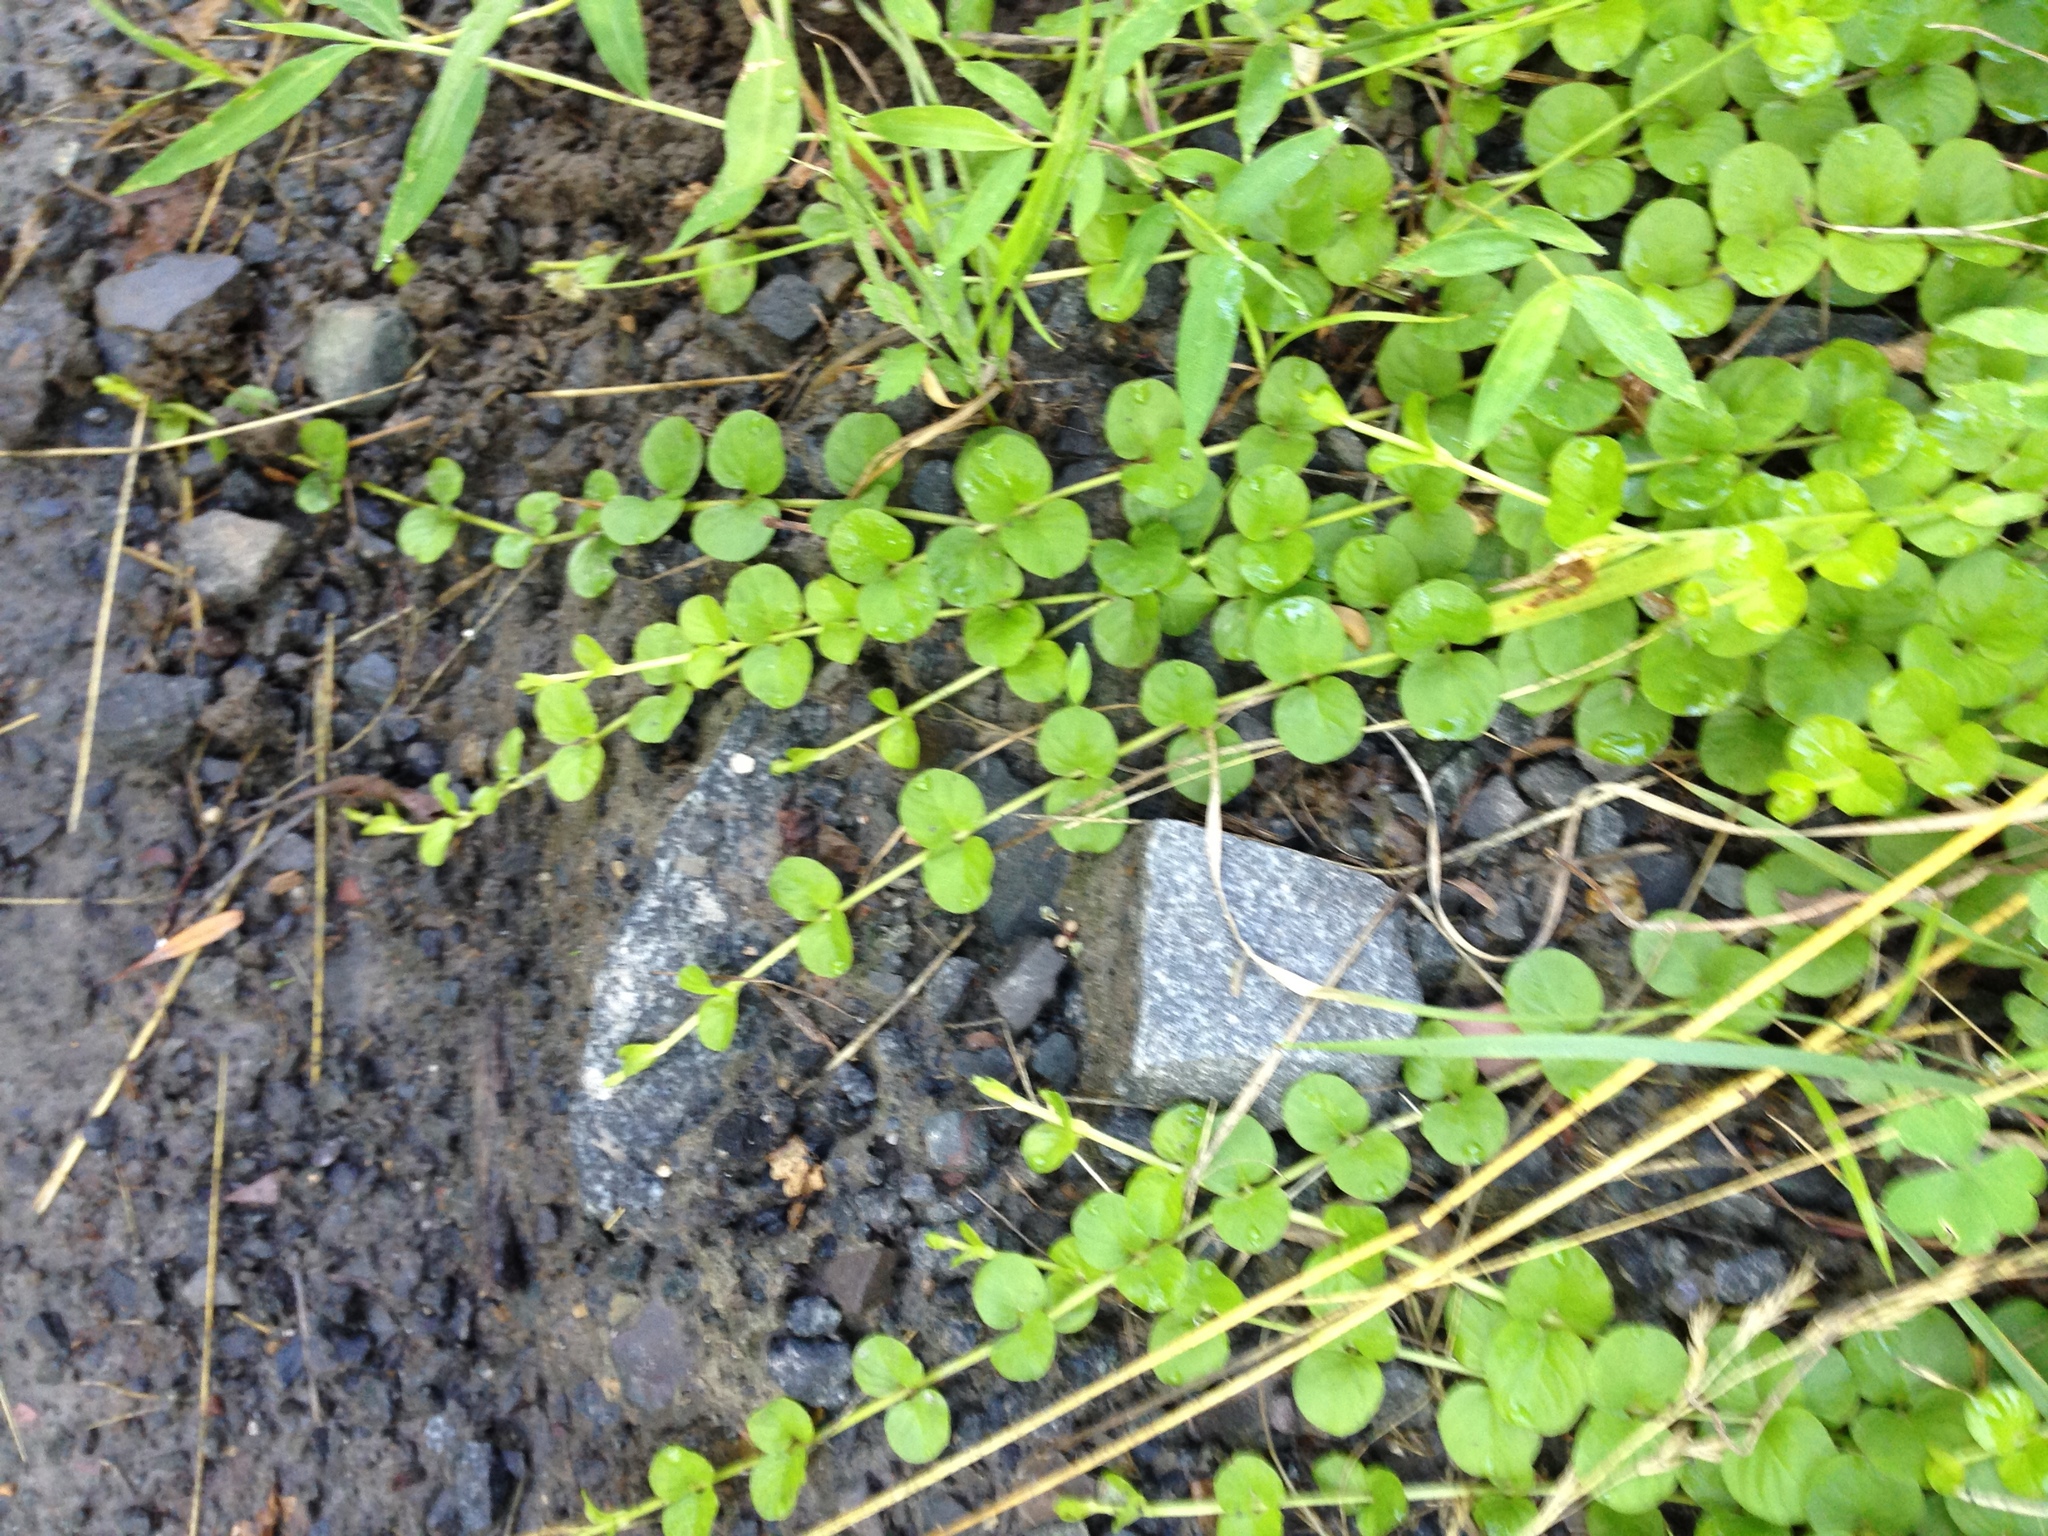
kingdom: Plantae
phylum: Tracheophyta
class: Magnoliopsida
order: Ericales
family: Primulaceae
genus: Lysimachia
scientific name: Lysimachia nummularia
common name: Moneywort
